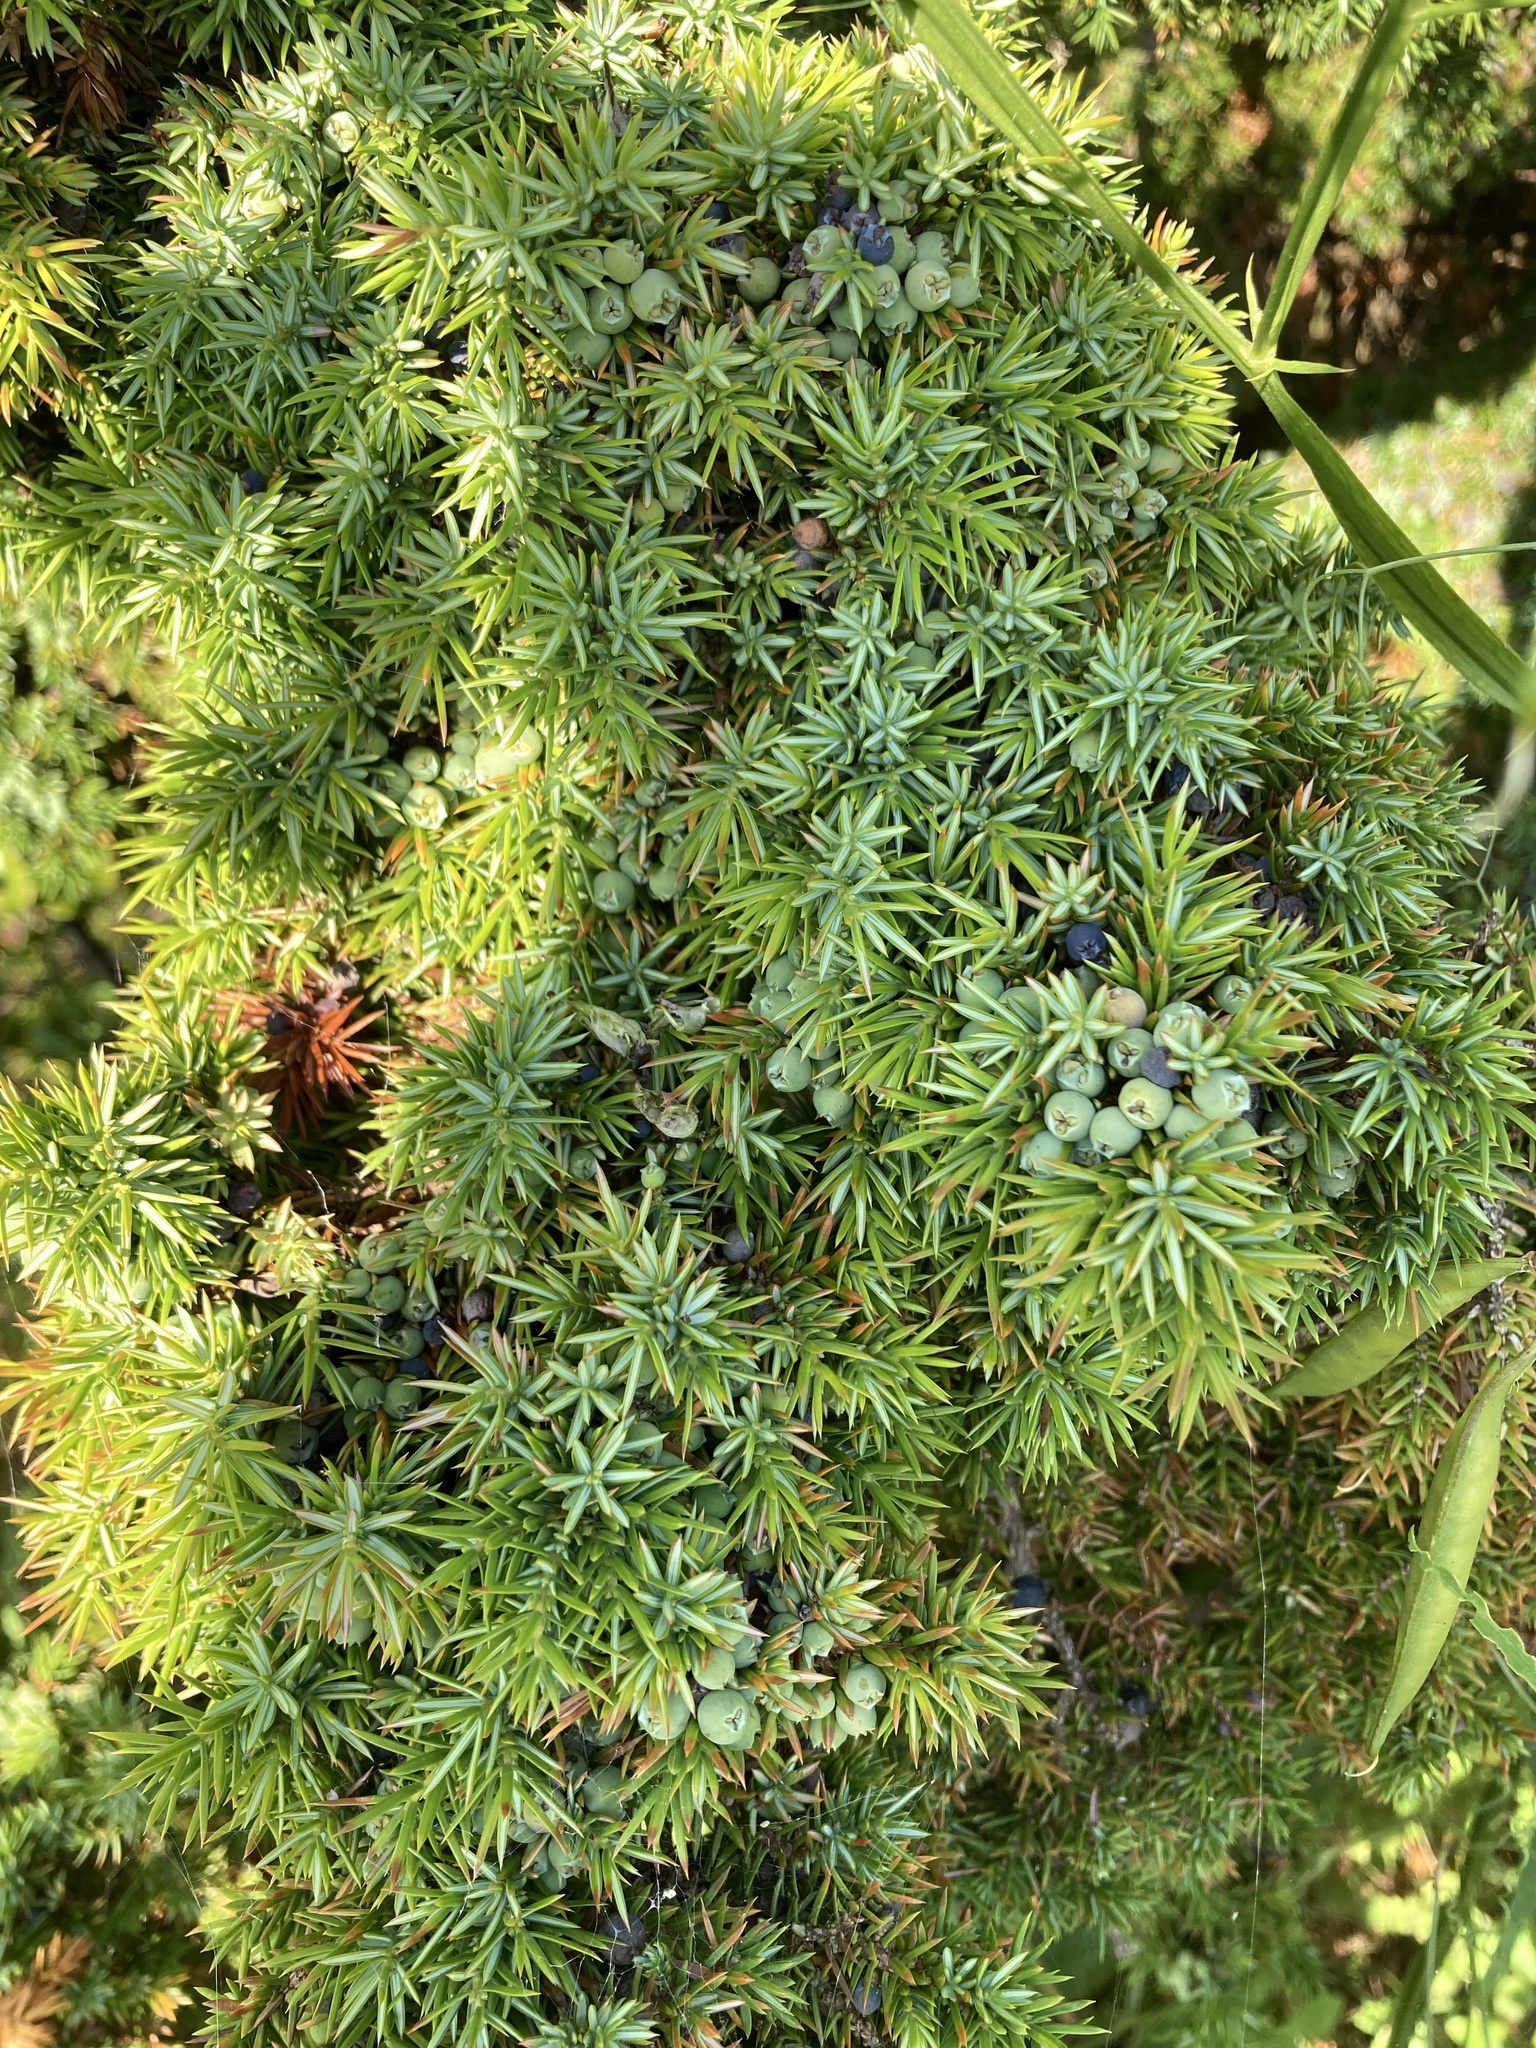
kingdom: Plantae
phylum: Tracheophyta
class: Pinopsida
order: Pinales
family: Cupressaceae
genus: Juniperus
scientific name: Juniperus communis
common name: Common juniper
